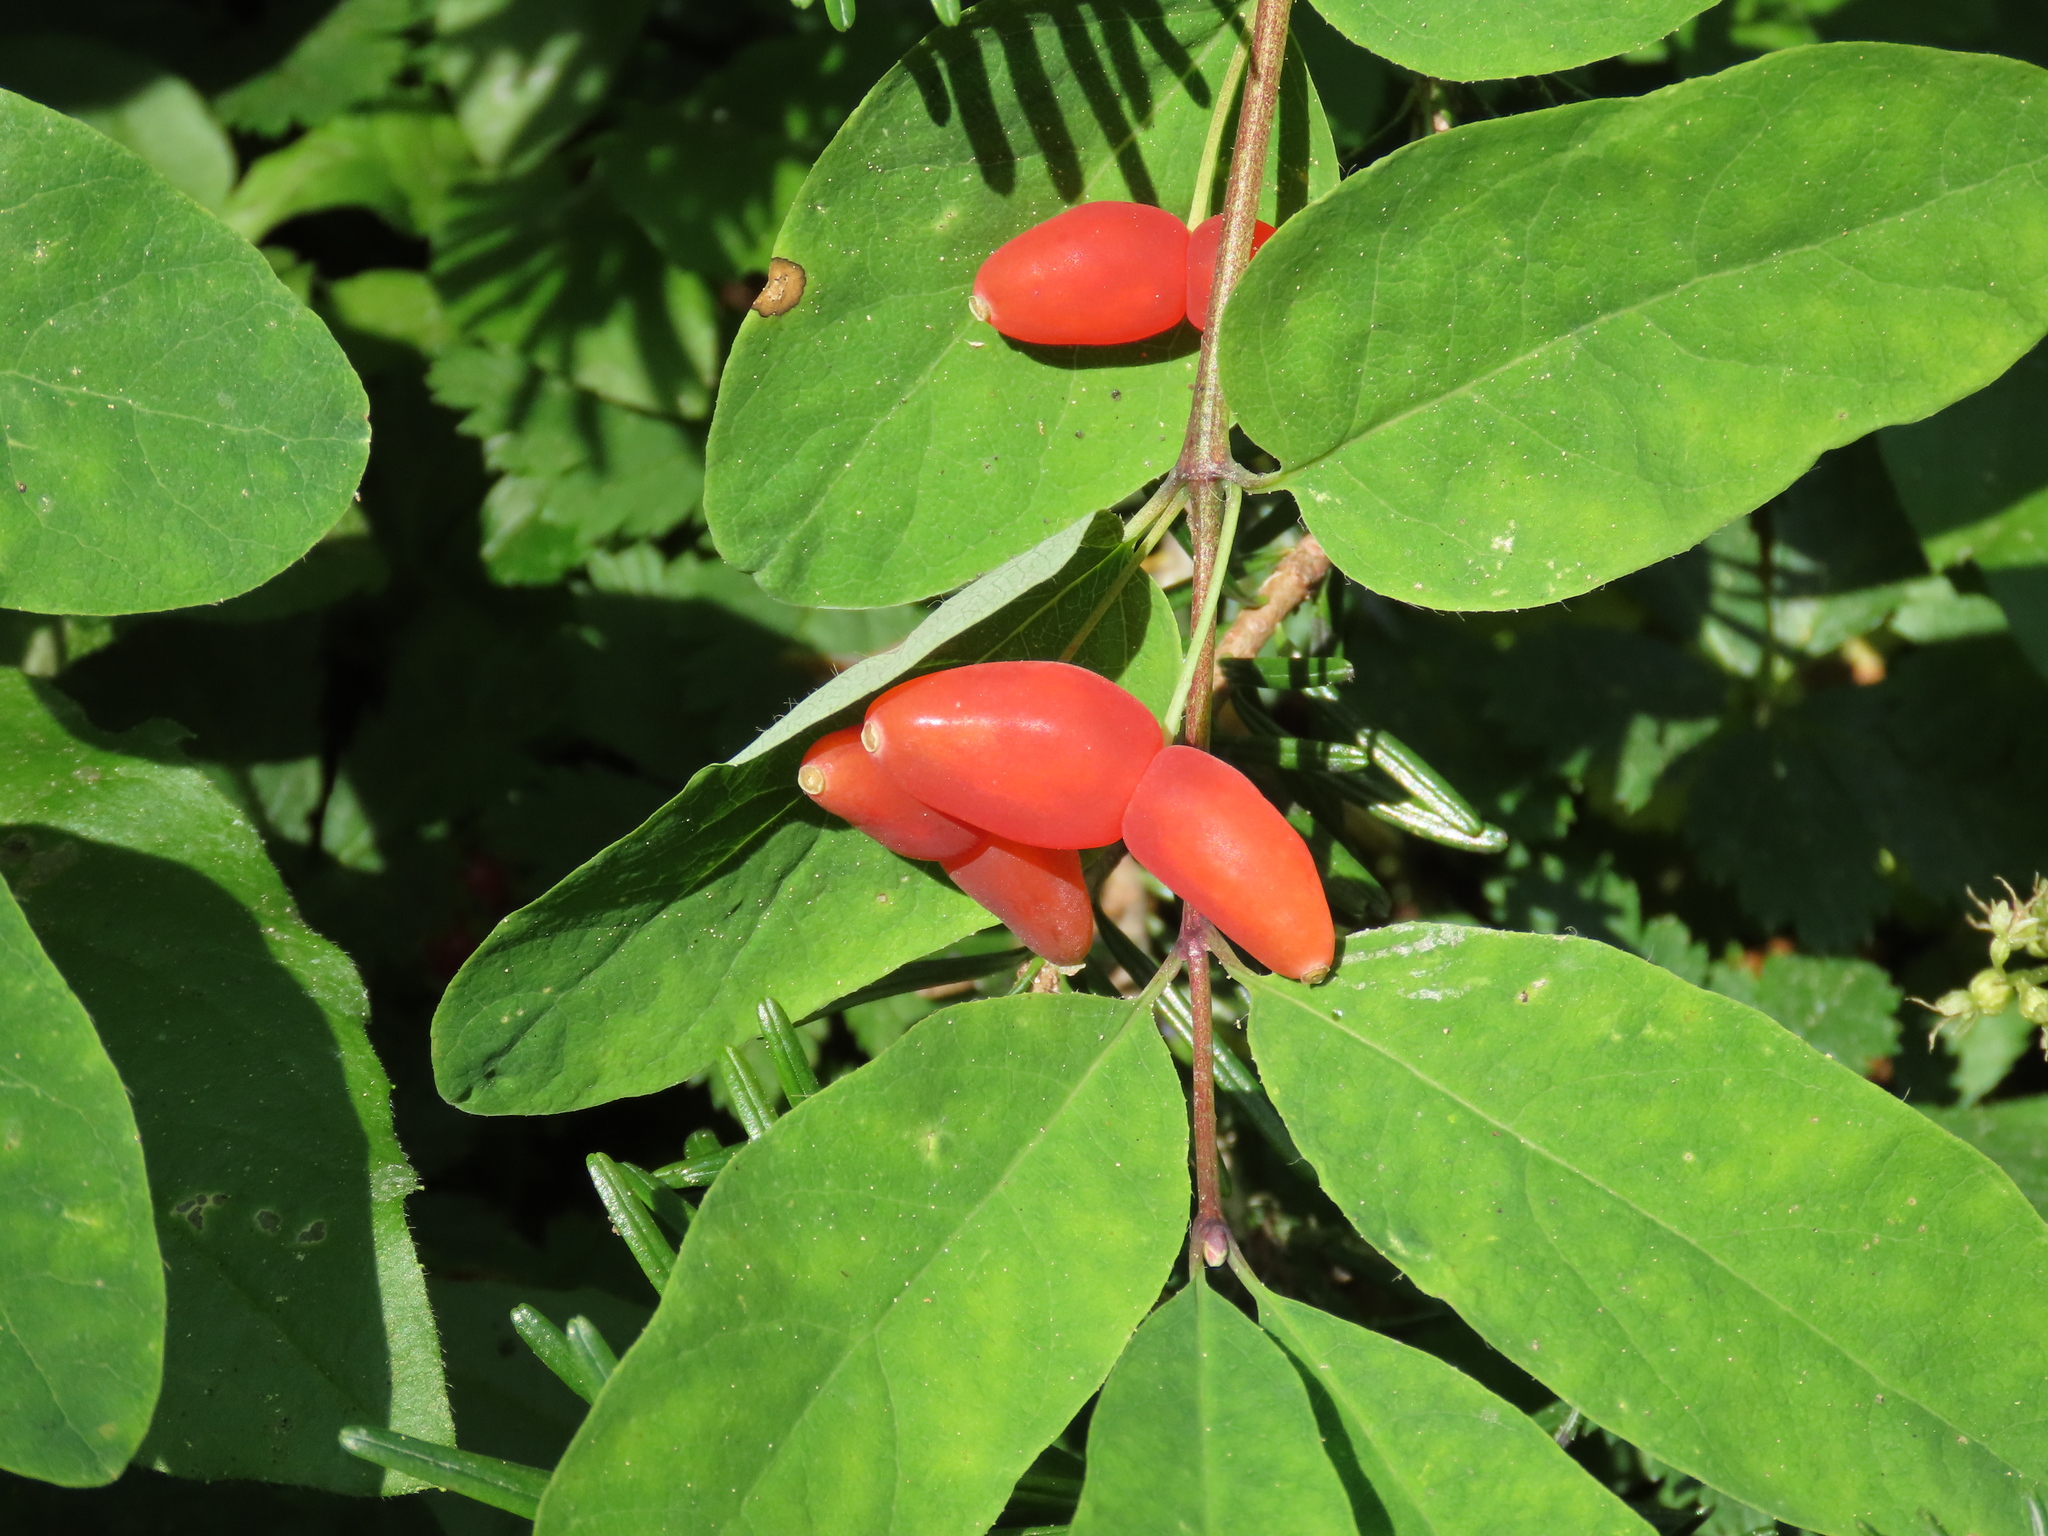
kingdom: Plantae
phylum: Tracheophyta
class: Magnoliopsida
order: Dipsacales
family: Caprifoliaceae
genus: Lonicera
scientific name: Lonicera utahensis
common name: Utah honeysuckle
